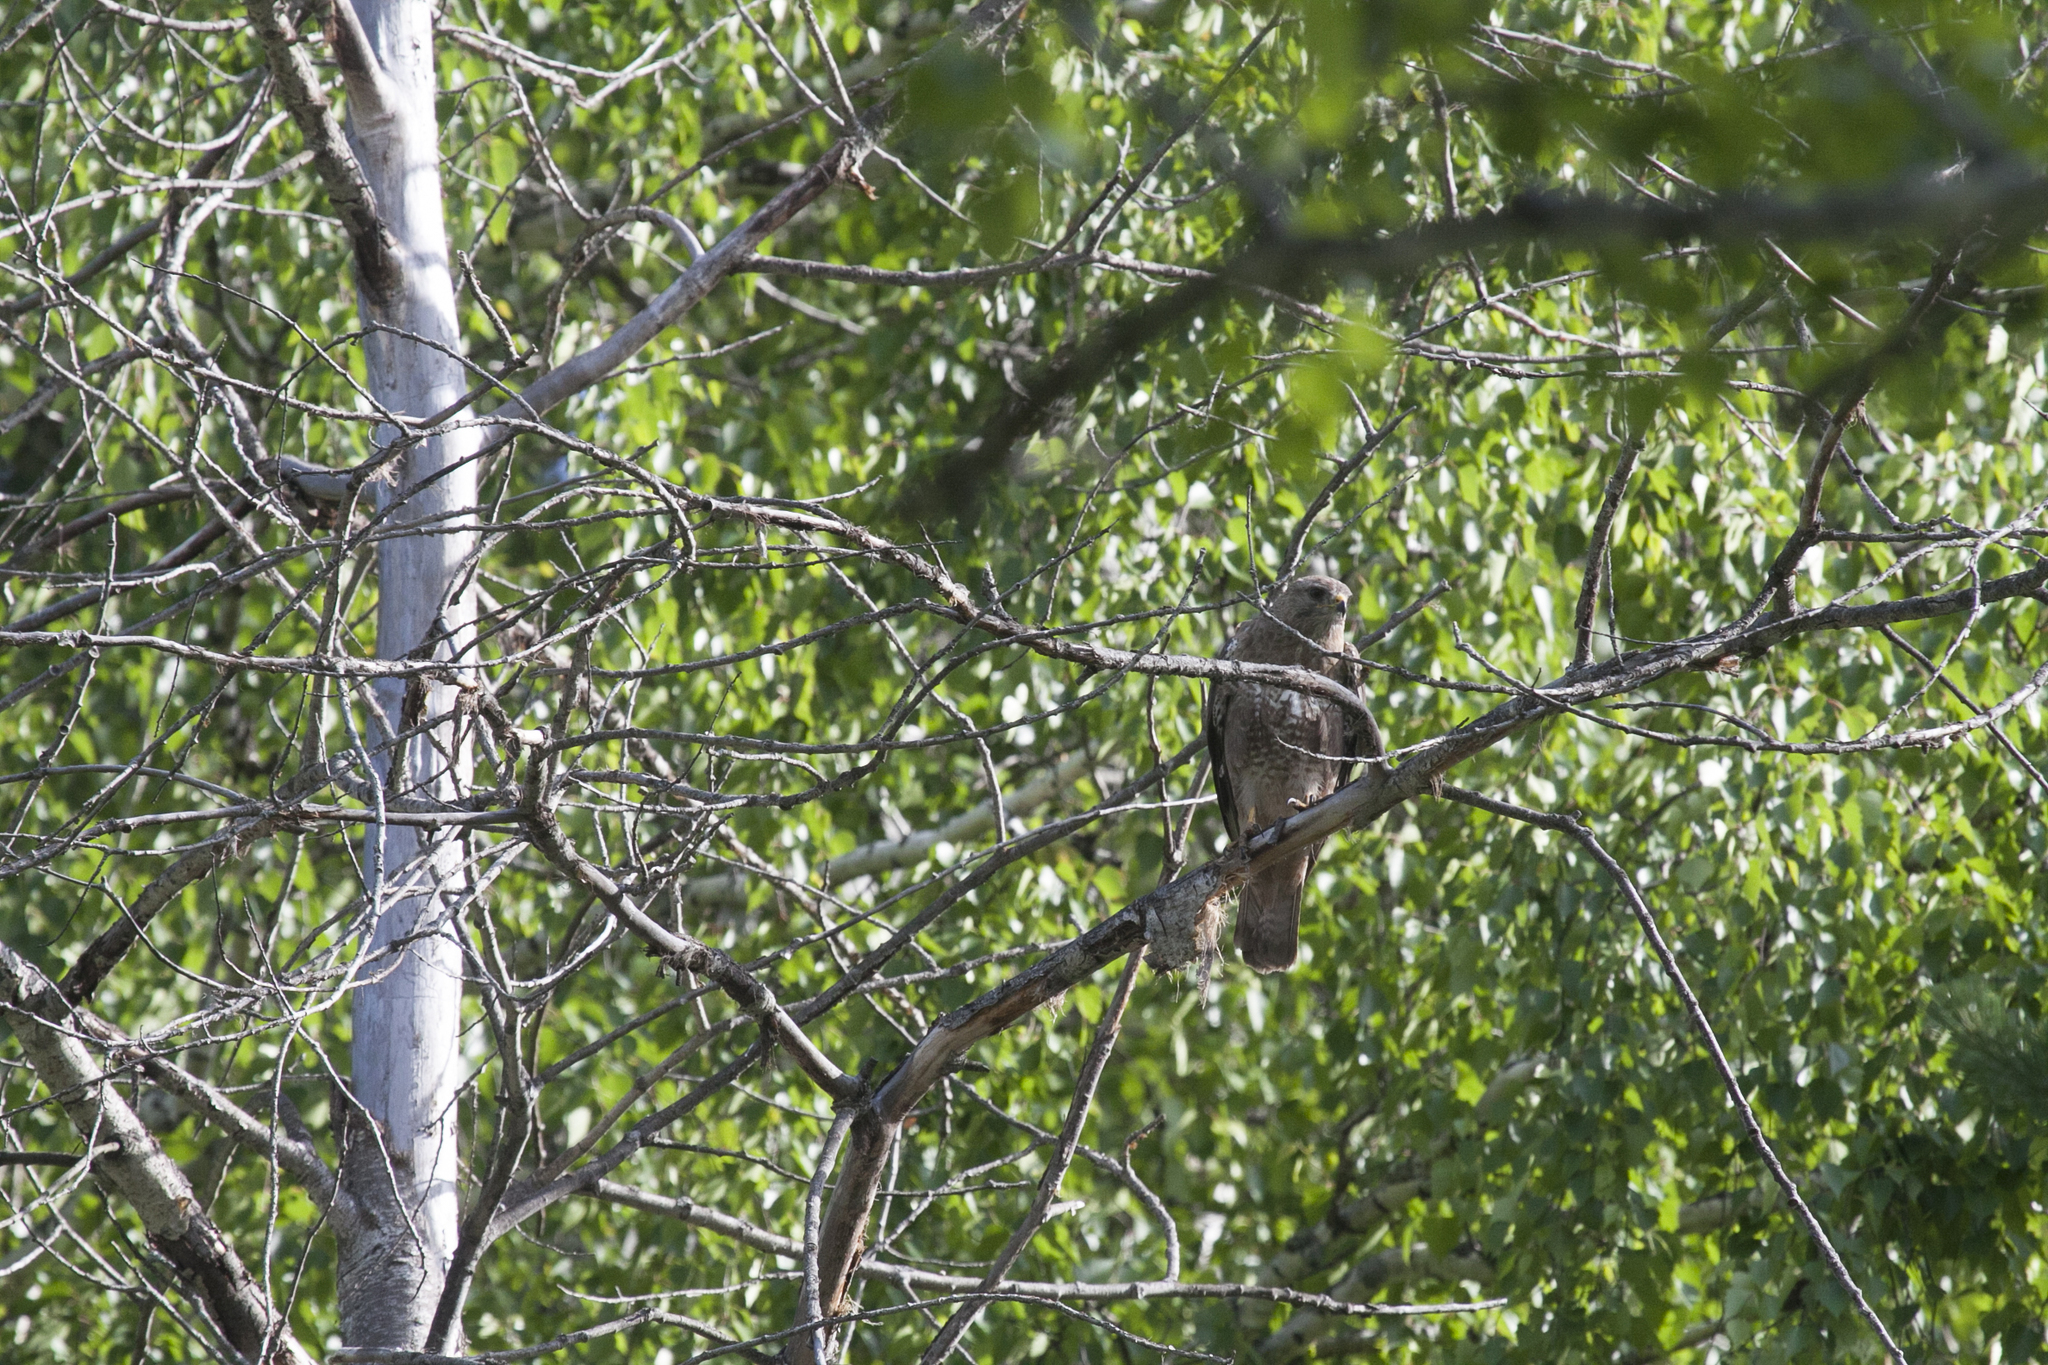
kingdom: Animalia
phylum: Chordata
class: Aves
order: Accipitriformes
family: Accipitridae
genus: Buteo
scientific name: Buteo buteo
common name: Common buzzard
